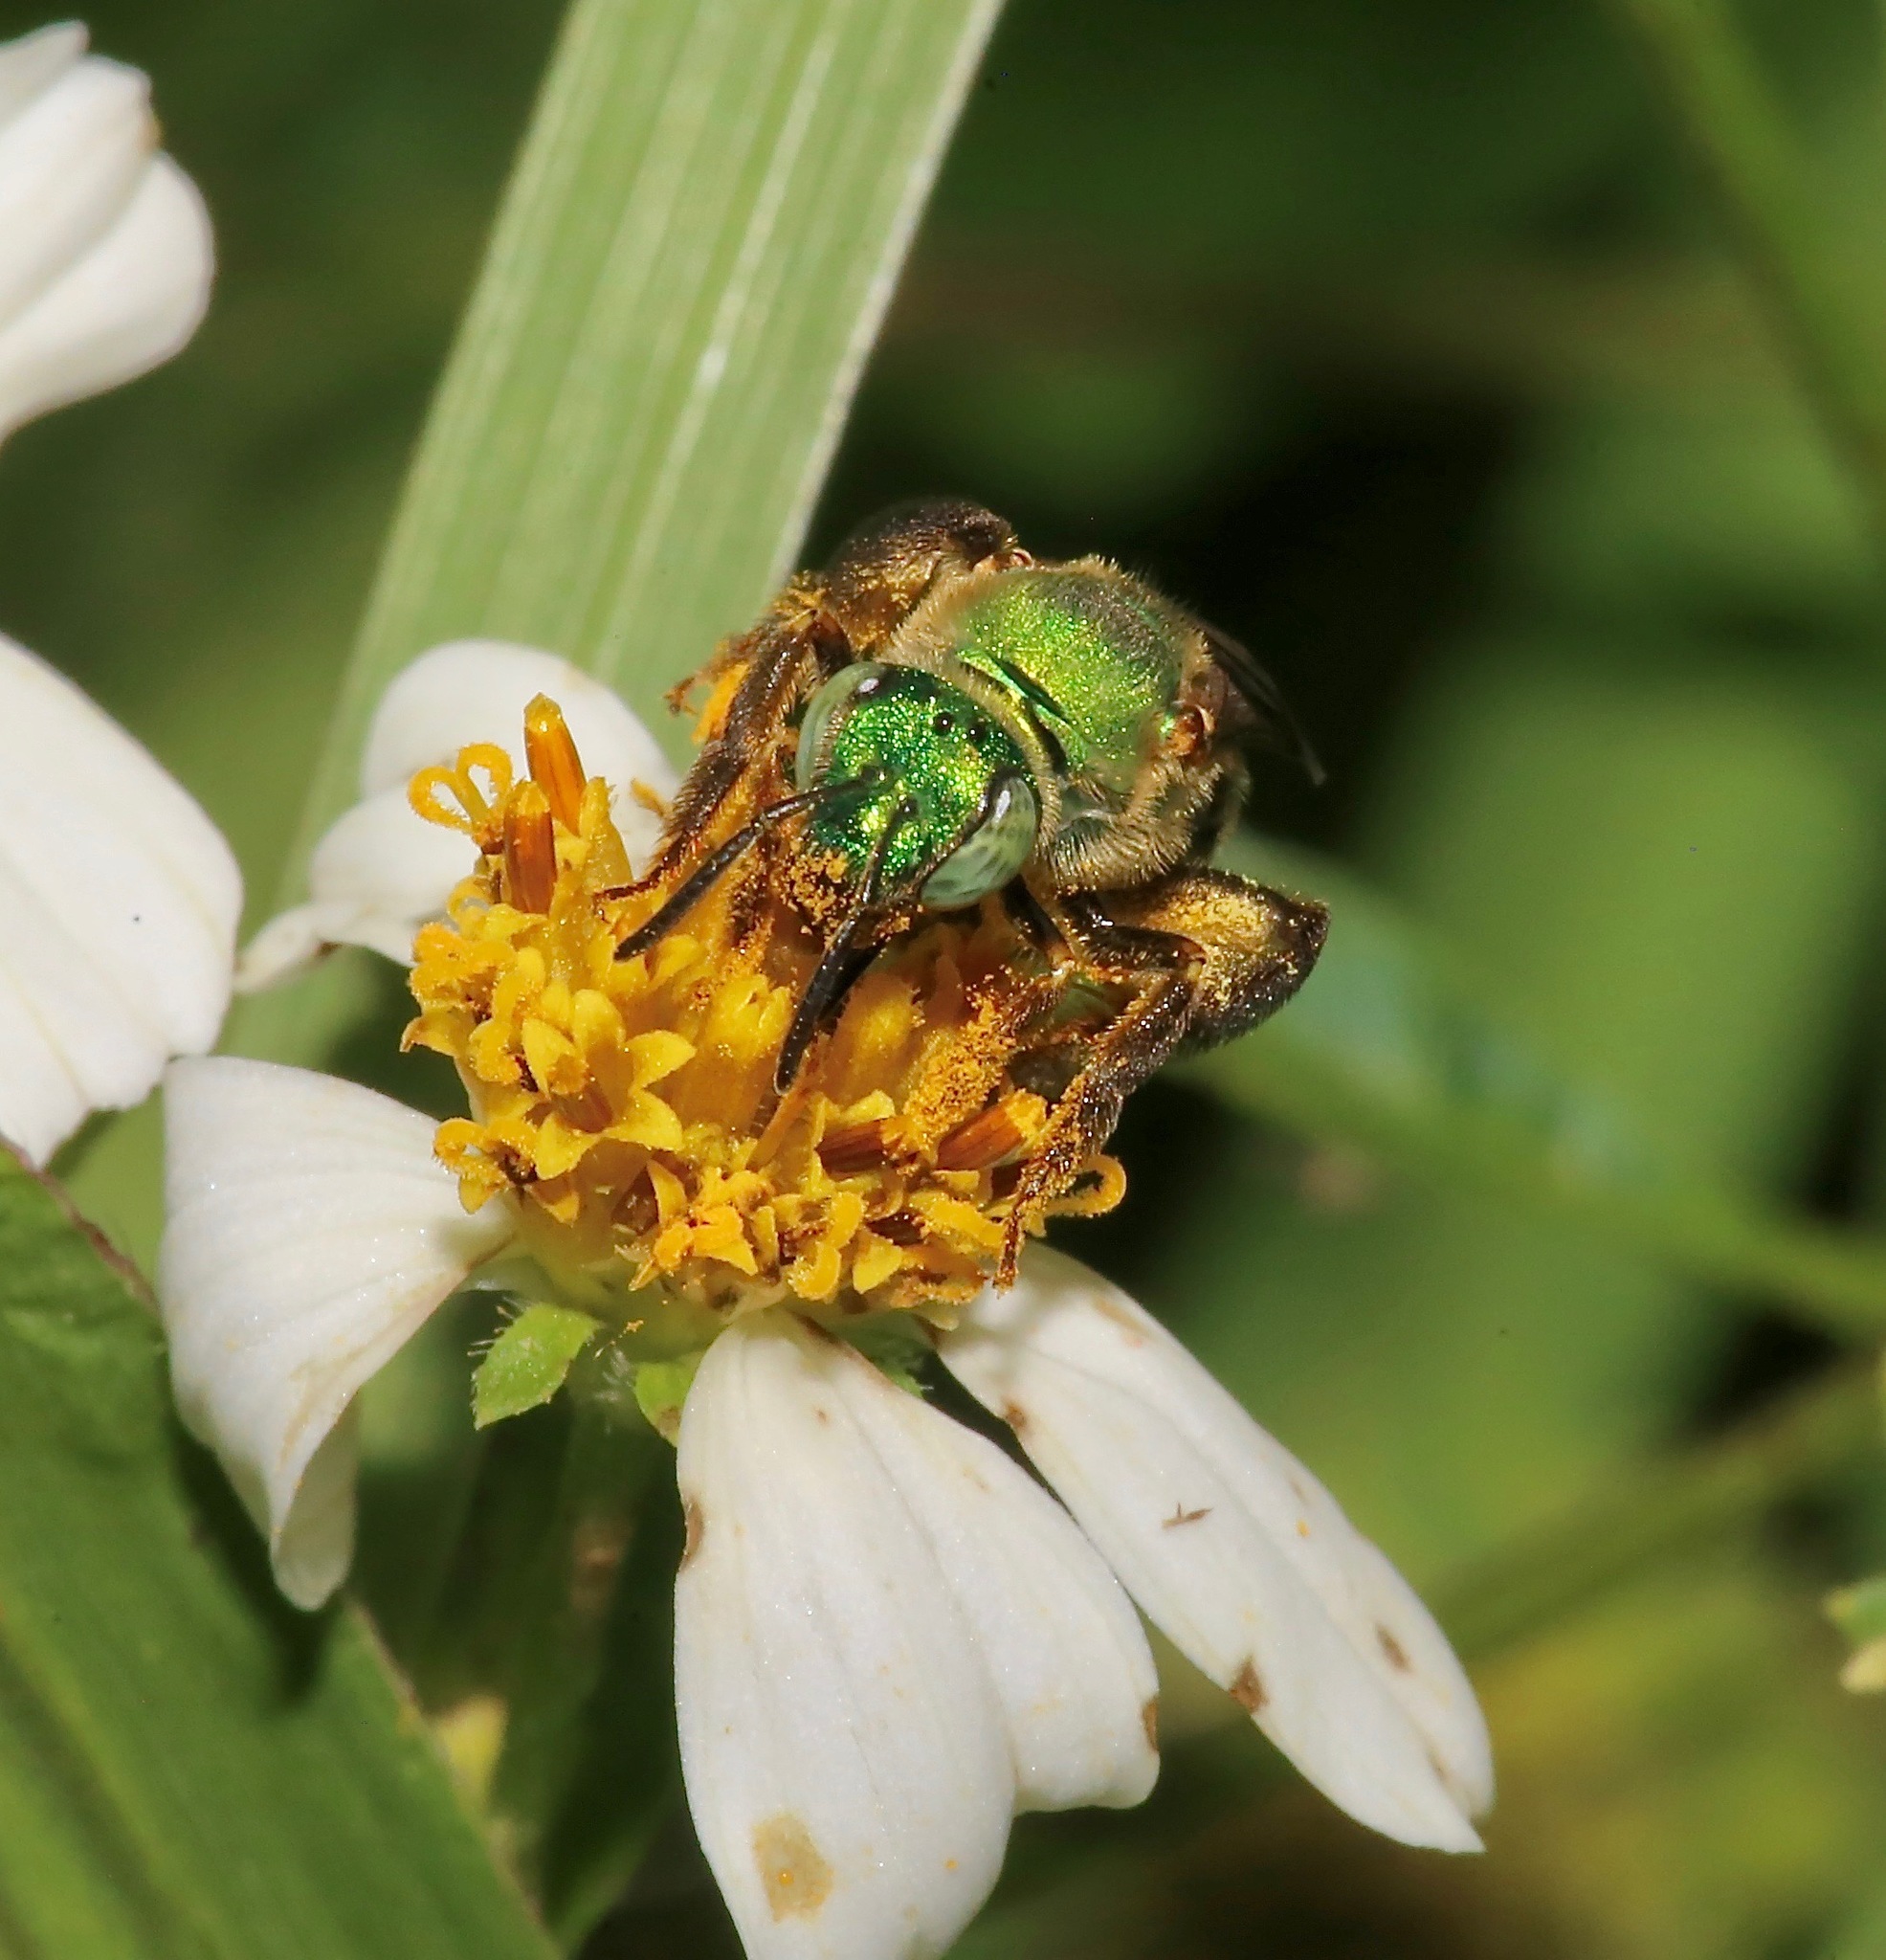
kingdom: Animalia
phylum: Arthropoda
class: Insecta
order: Hymenoptera
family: Halictidae
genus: Agapostemon
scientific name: Agapostemon splendens
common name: Brown-winged striped sweat bee
